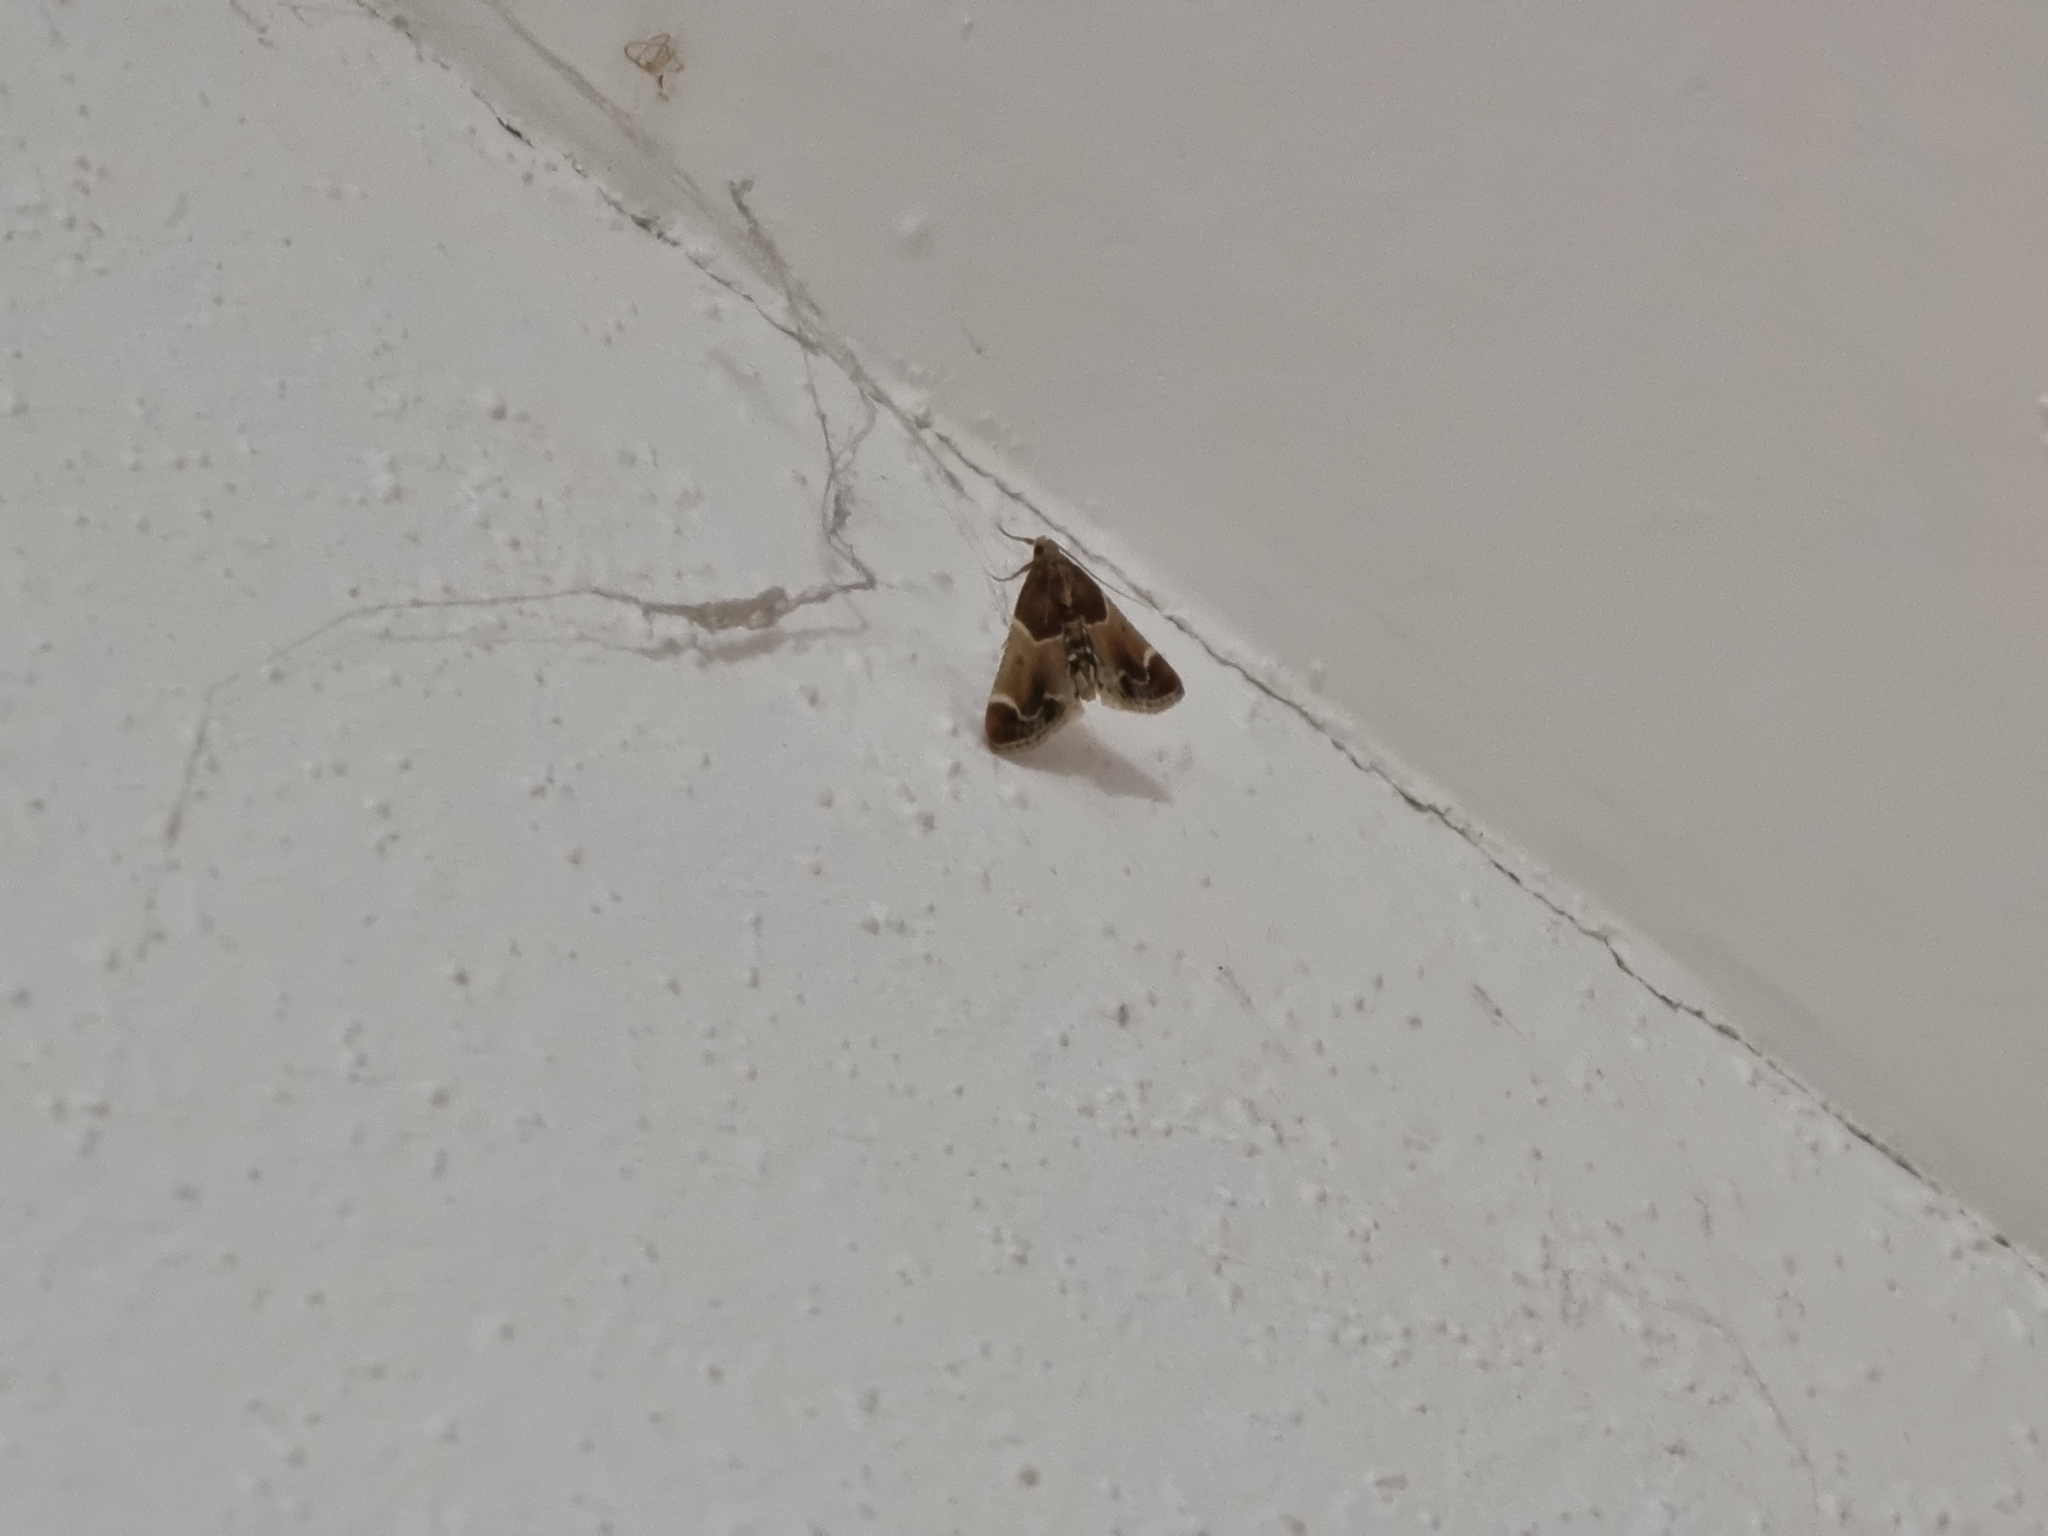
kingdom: Animalia
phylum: Arthropoda
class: Insecta
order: Lepidoptera
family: Pyralidae
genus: Pyralis
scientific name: Pyralis farinalis
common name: Meal moth
